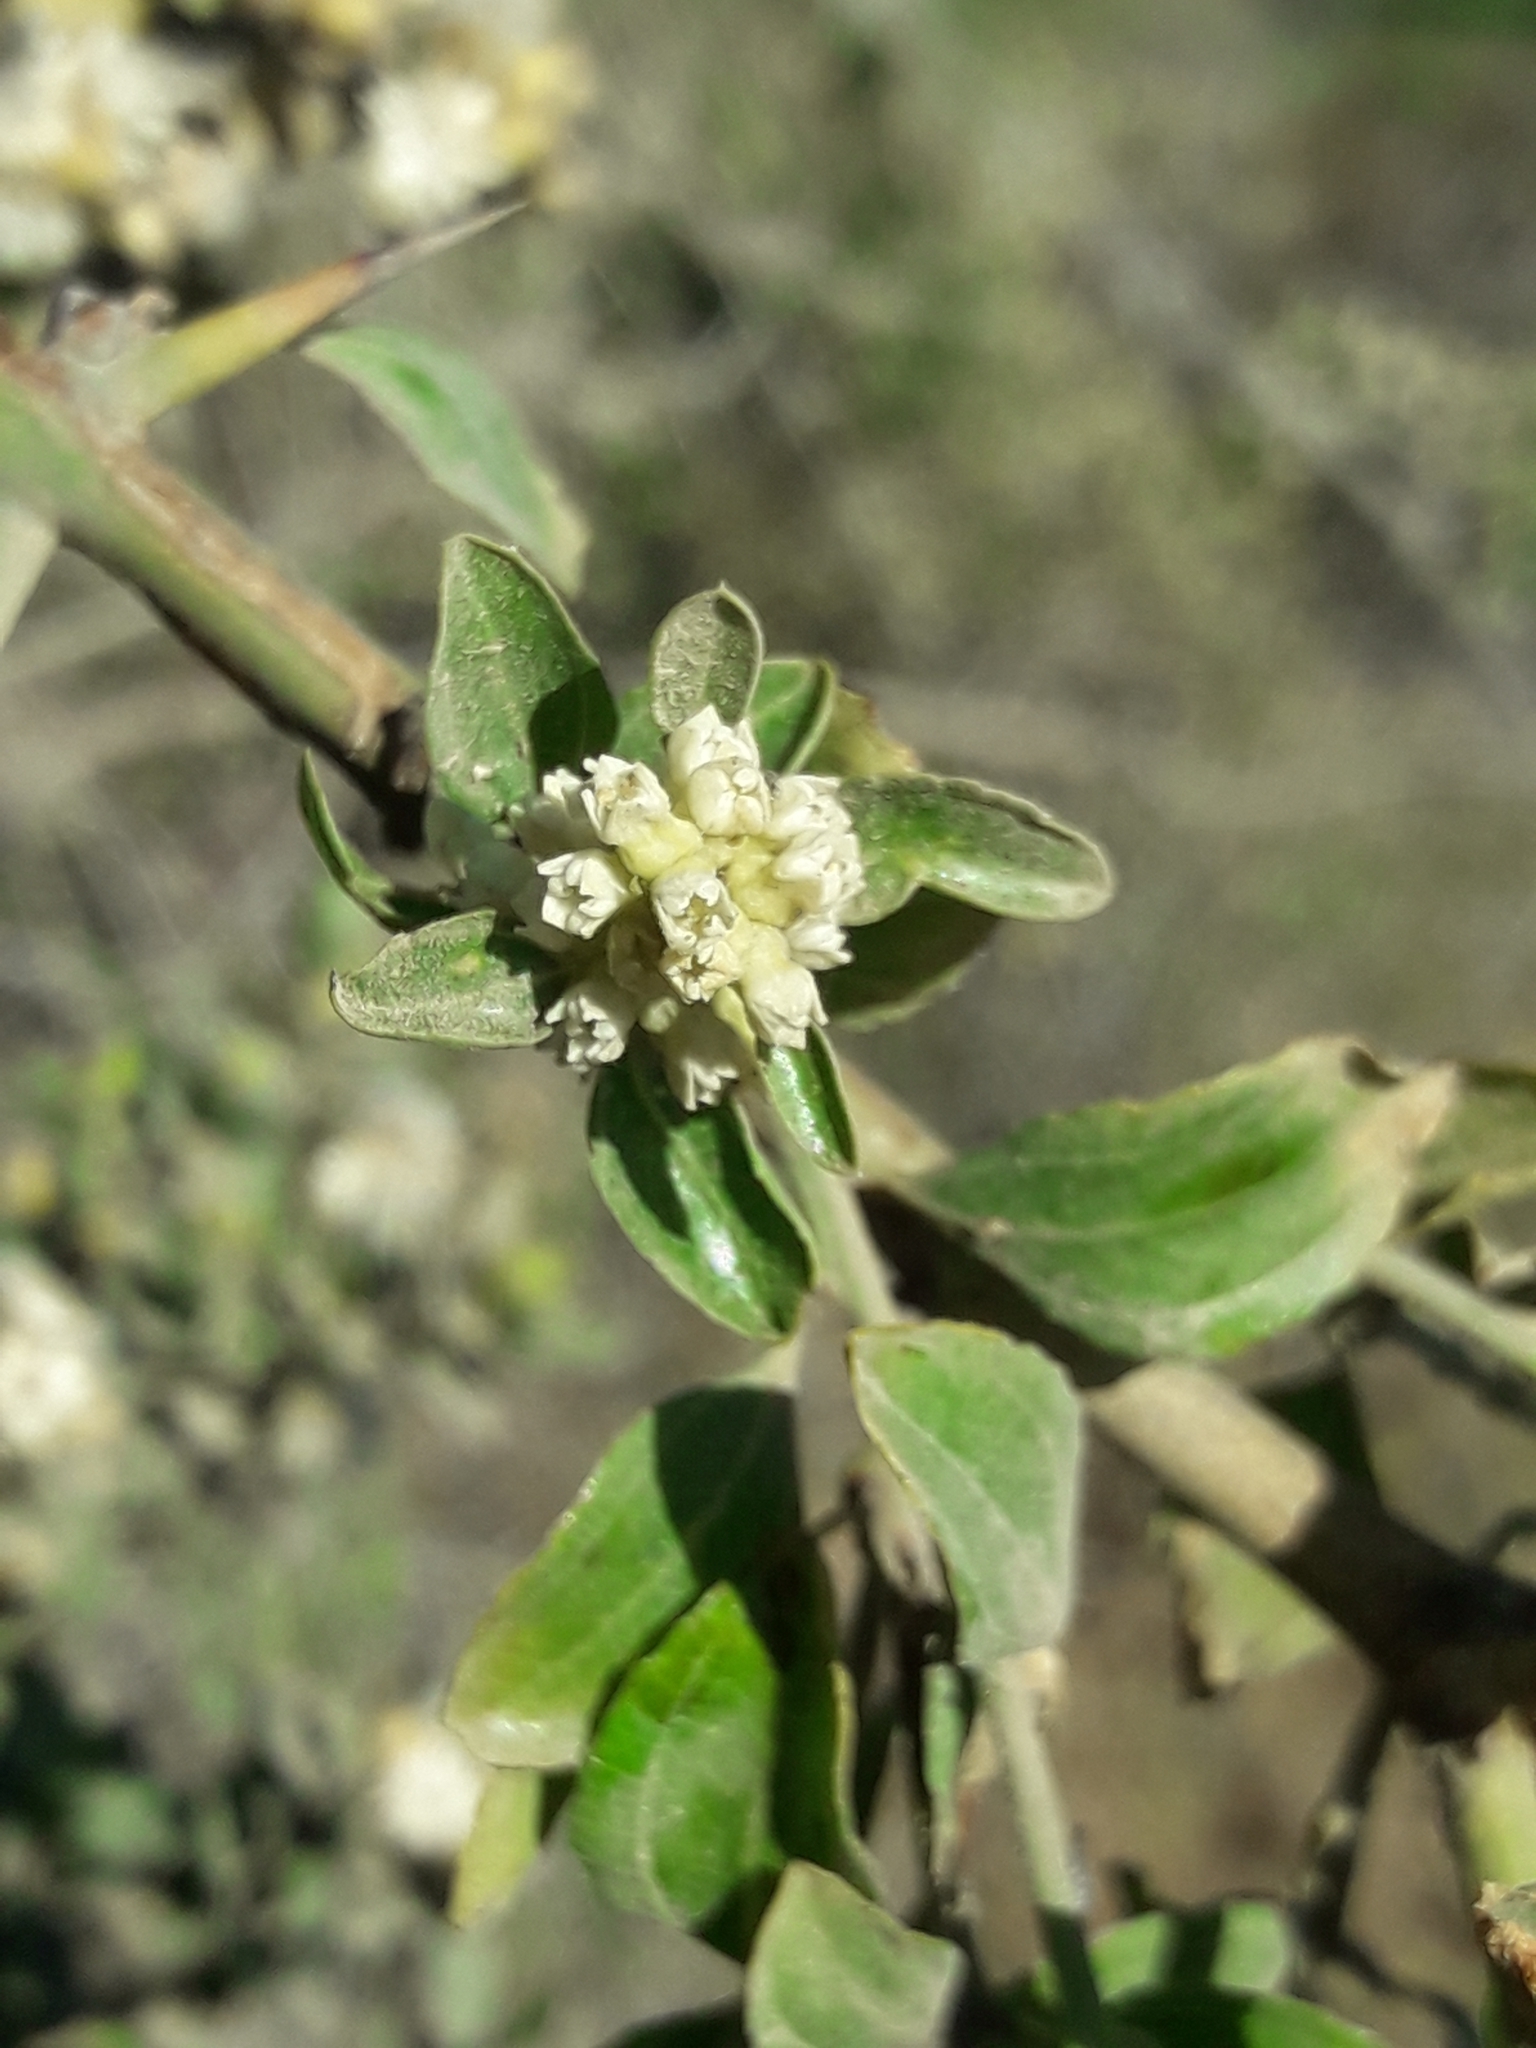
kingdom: Plantae
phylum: Tracheophyta
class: Magnoliopsida
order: Rosales
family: Rhamnaceae
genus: Retanilla
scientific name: Retanilla trinervia
